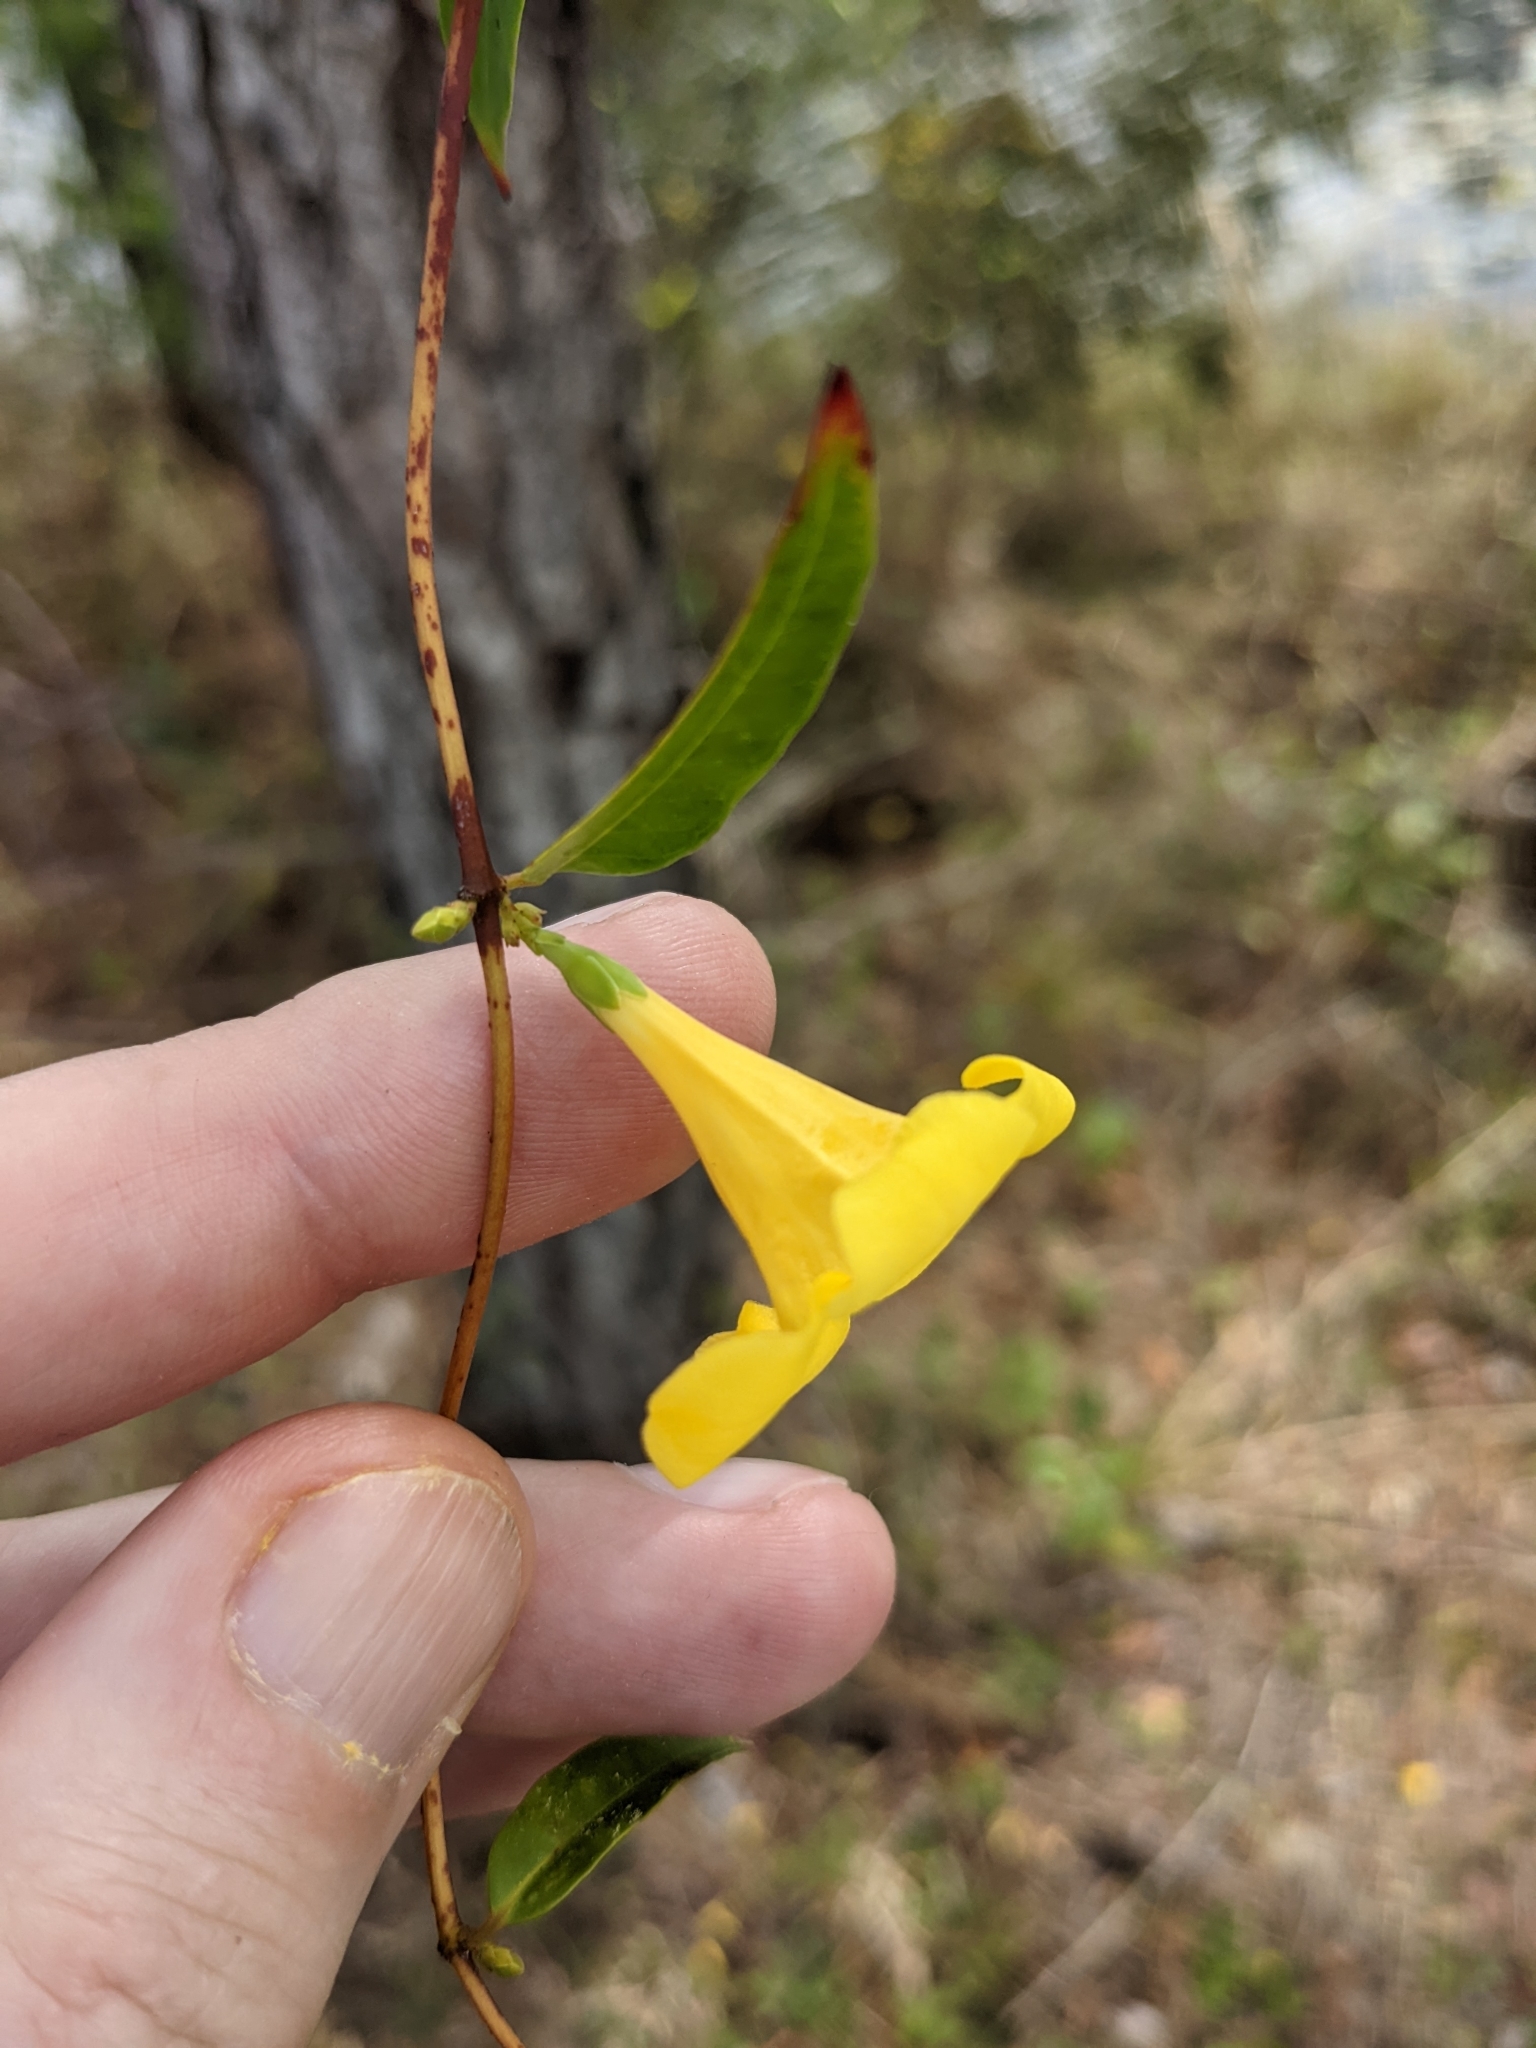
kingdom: Plantae
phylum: Tracheophyta
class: Magnoliopsida
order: Gentianales
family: Gelsemiaceae
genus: Gelsemium
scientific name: Gelsemium sempervirens
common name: Carolina-jasmine
